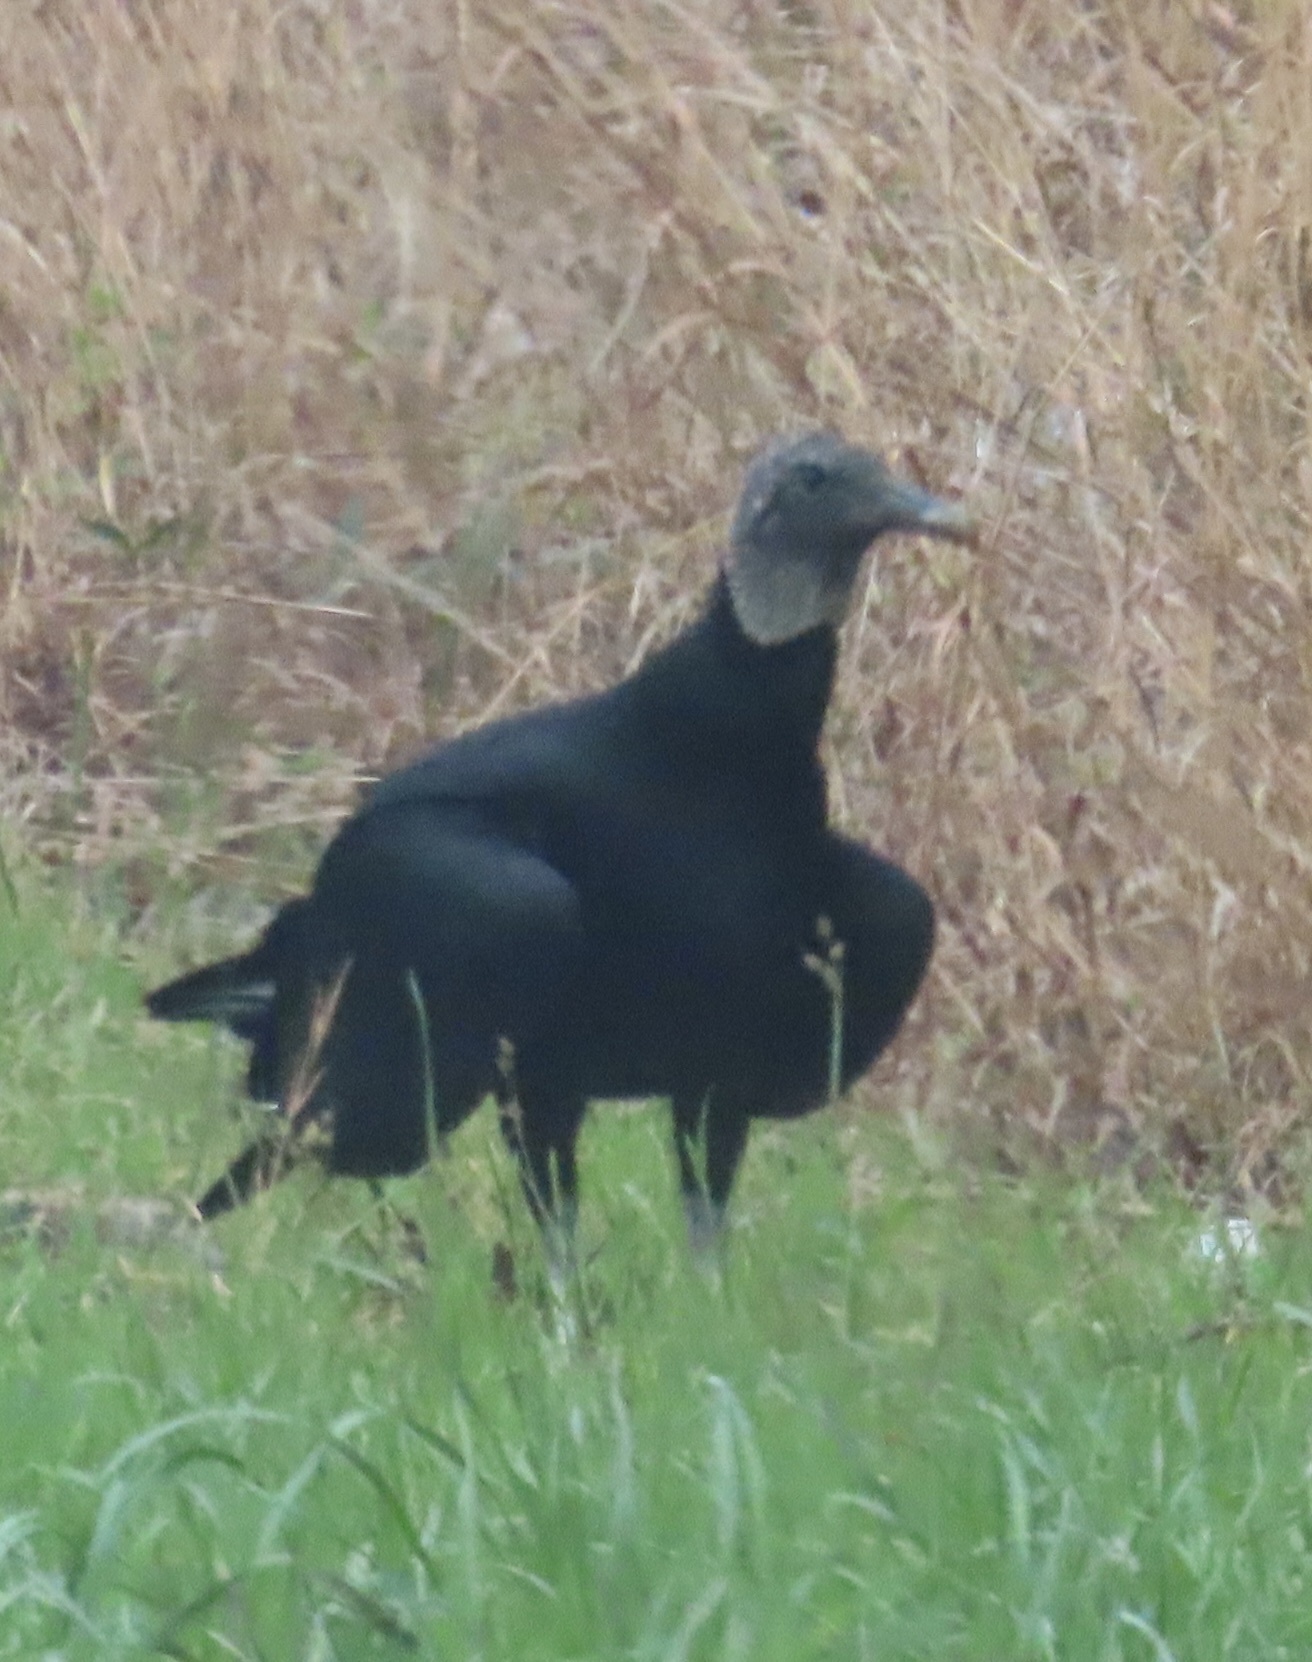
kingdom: Animalia
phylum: Chordata
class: Aves
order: Accipitriformes
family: Cathartidae
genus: Coragyps
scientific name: Coragyps atratus
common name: Black vulture
